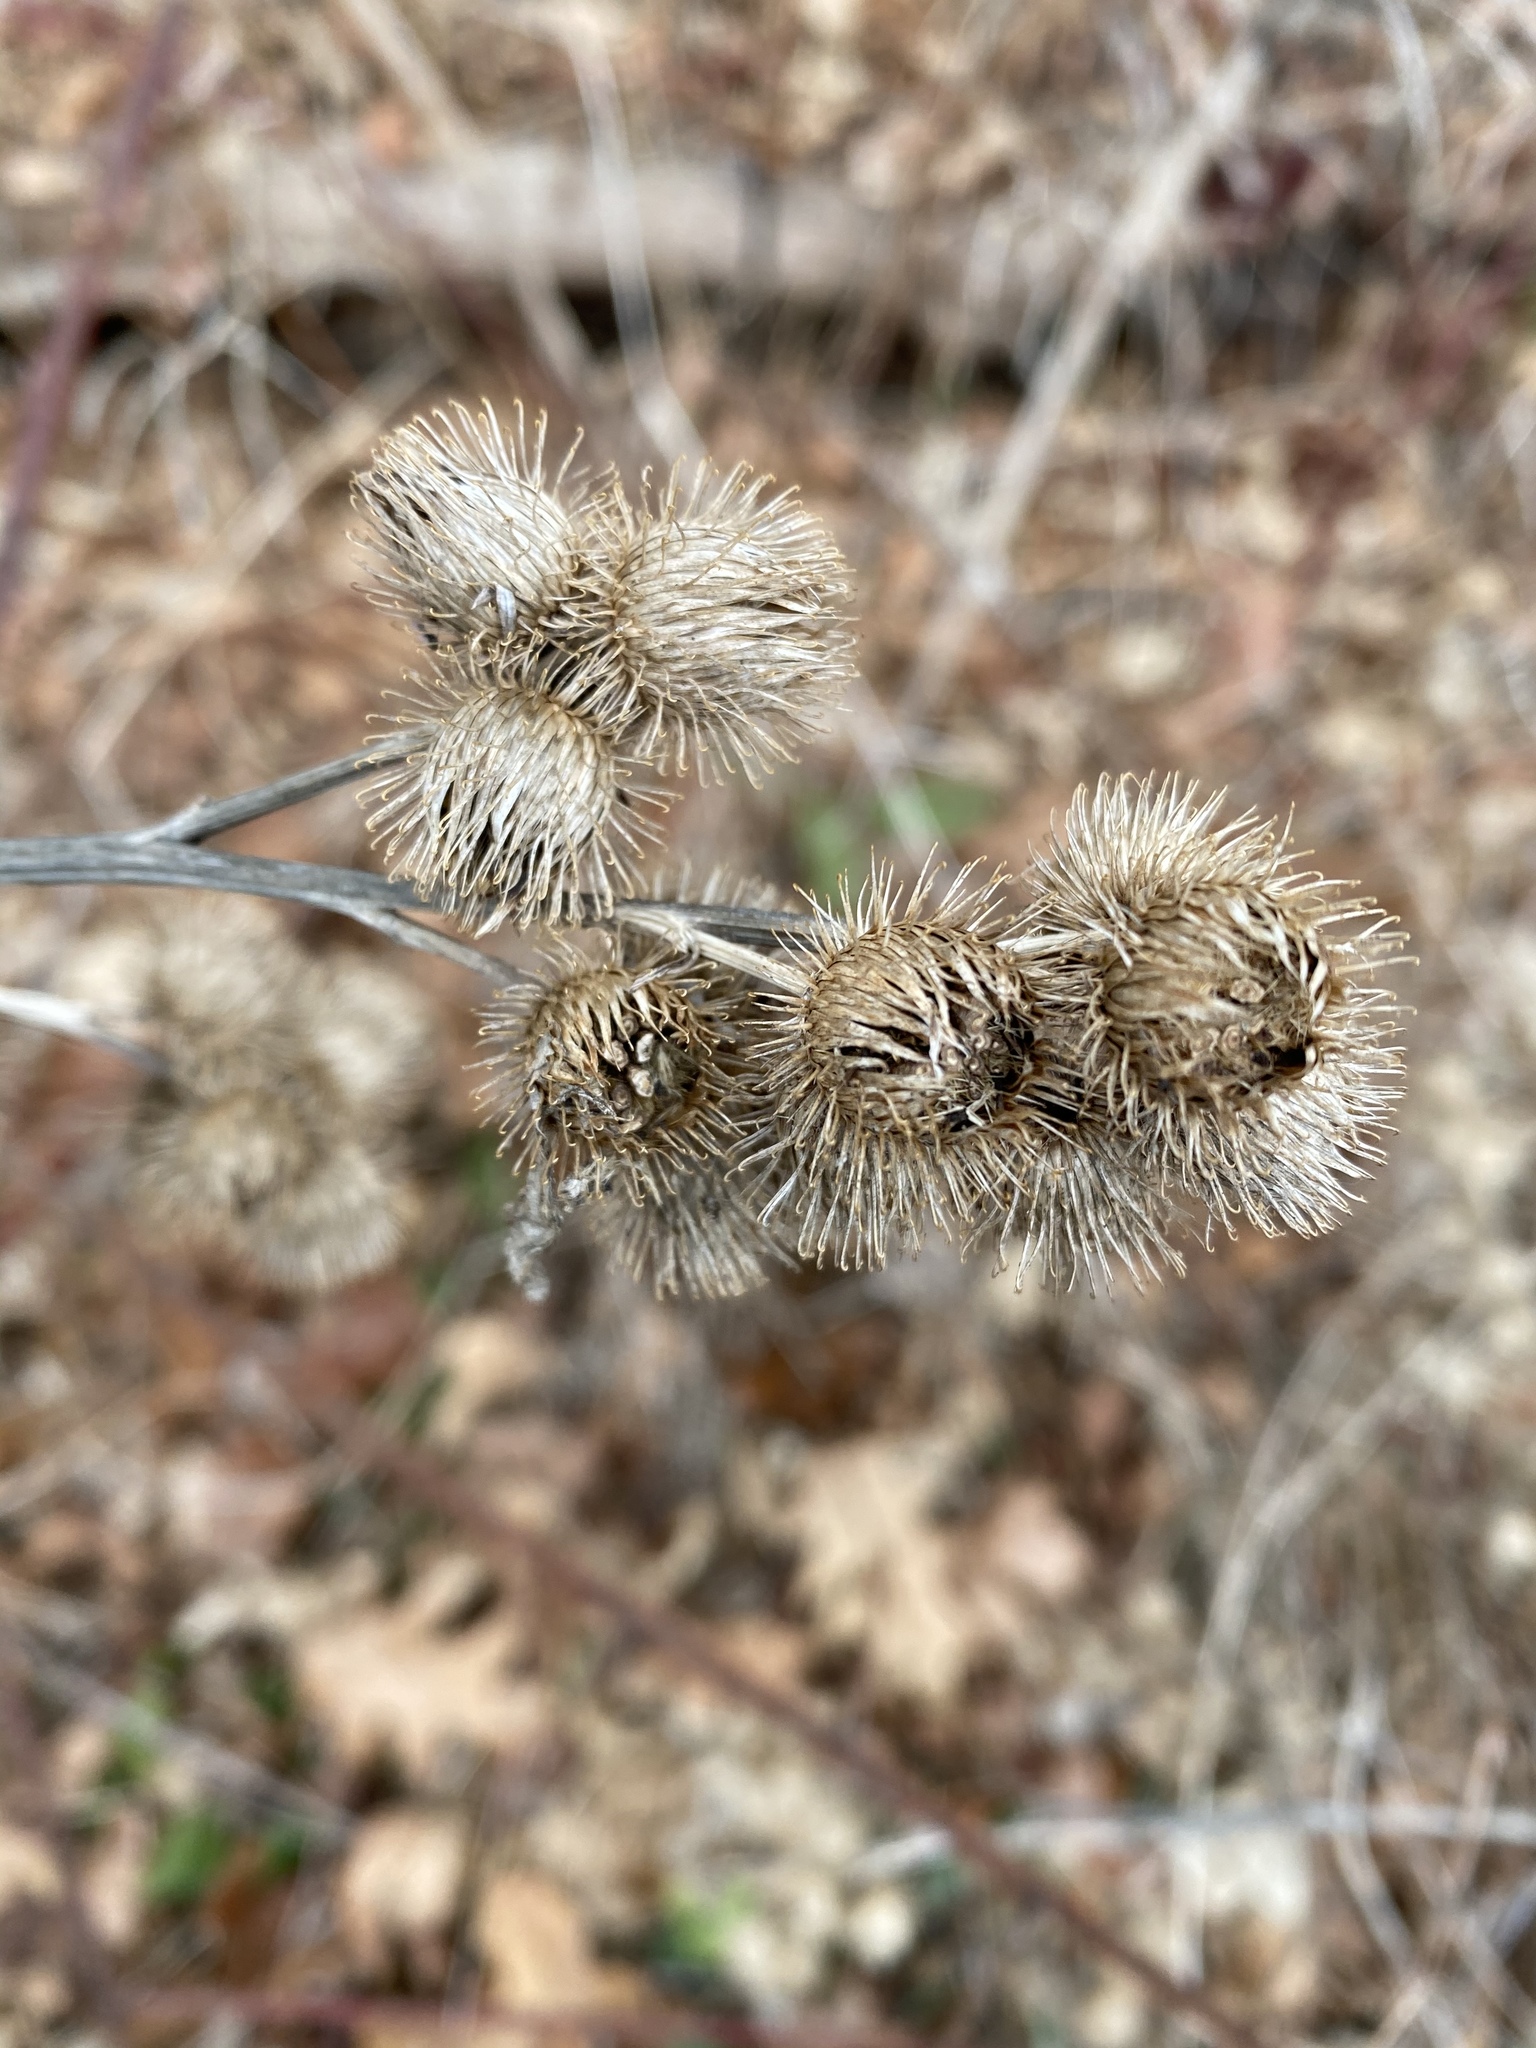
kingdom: Plantae
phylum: Tracheophyta
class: Magnoliopsida
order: Asterales
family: Asteraceae
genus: Arctium
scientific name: Arctium minus
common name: Lesser burdock
